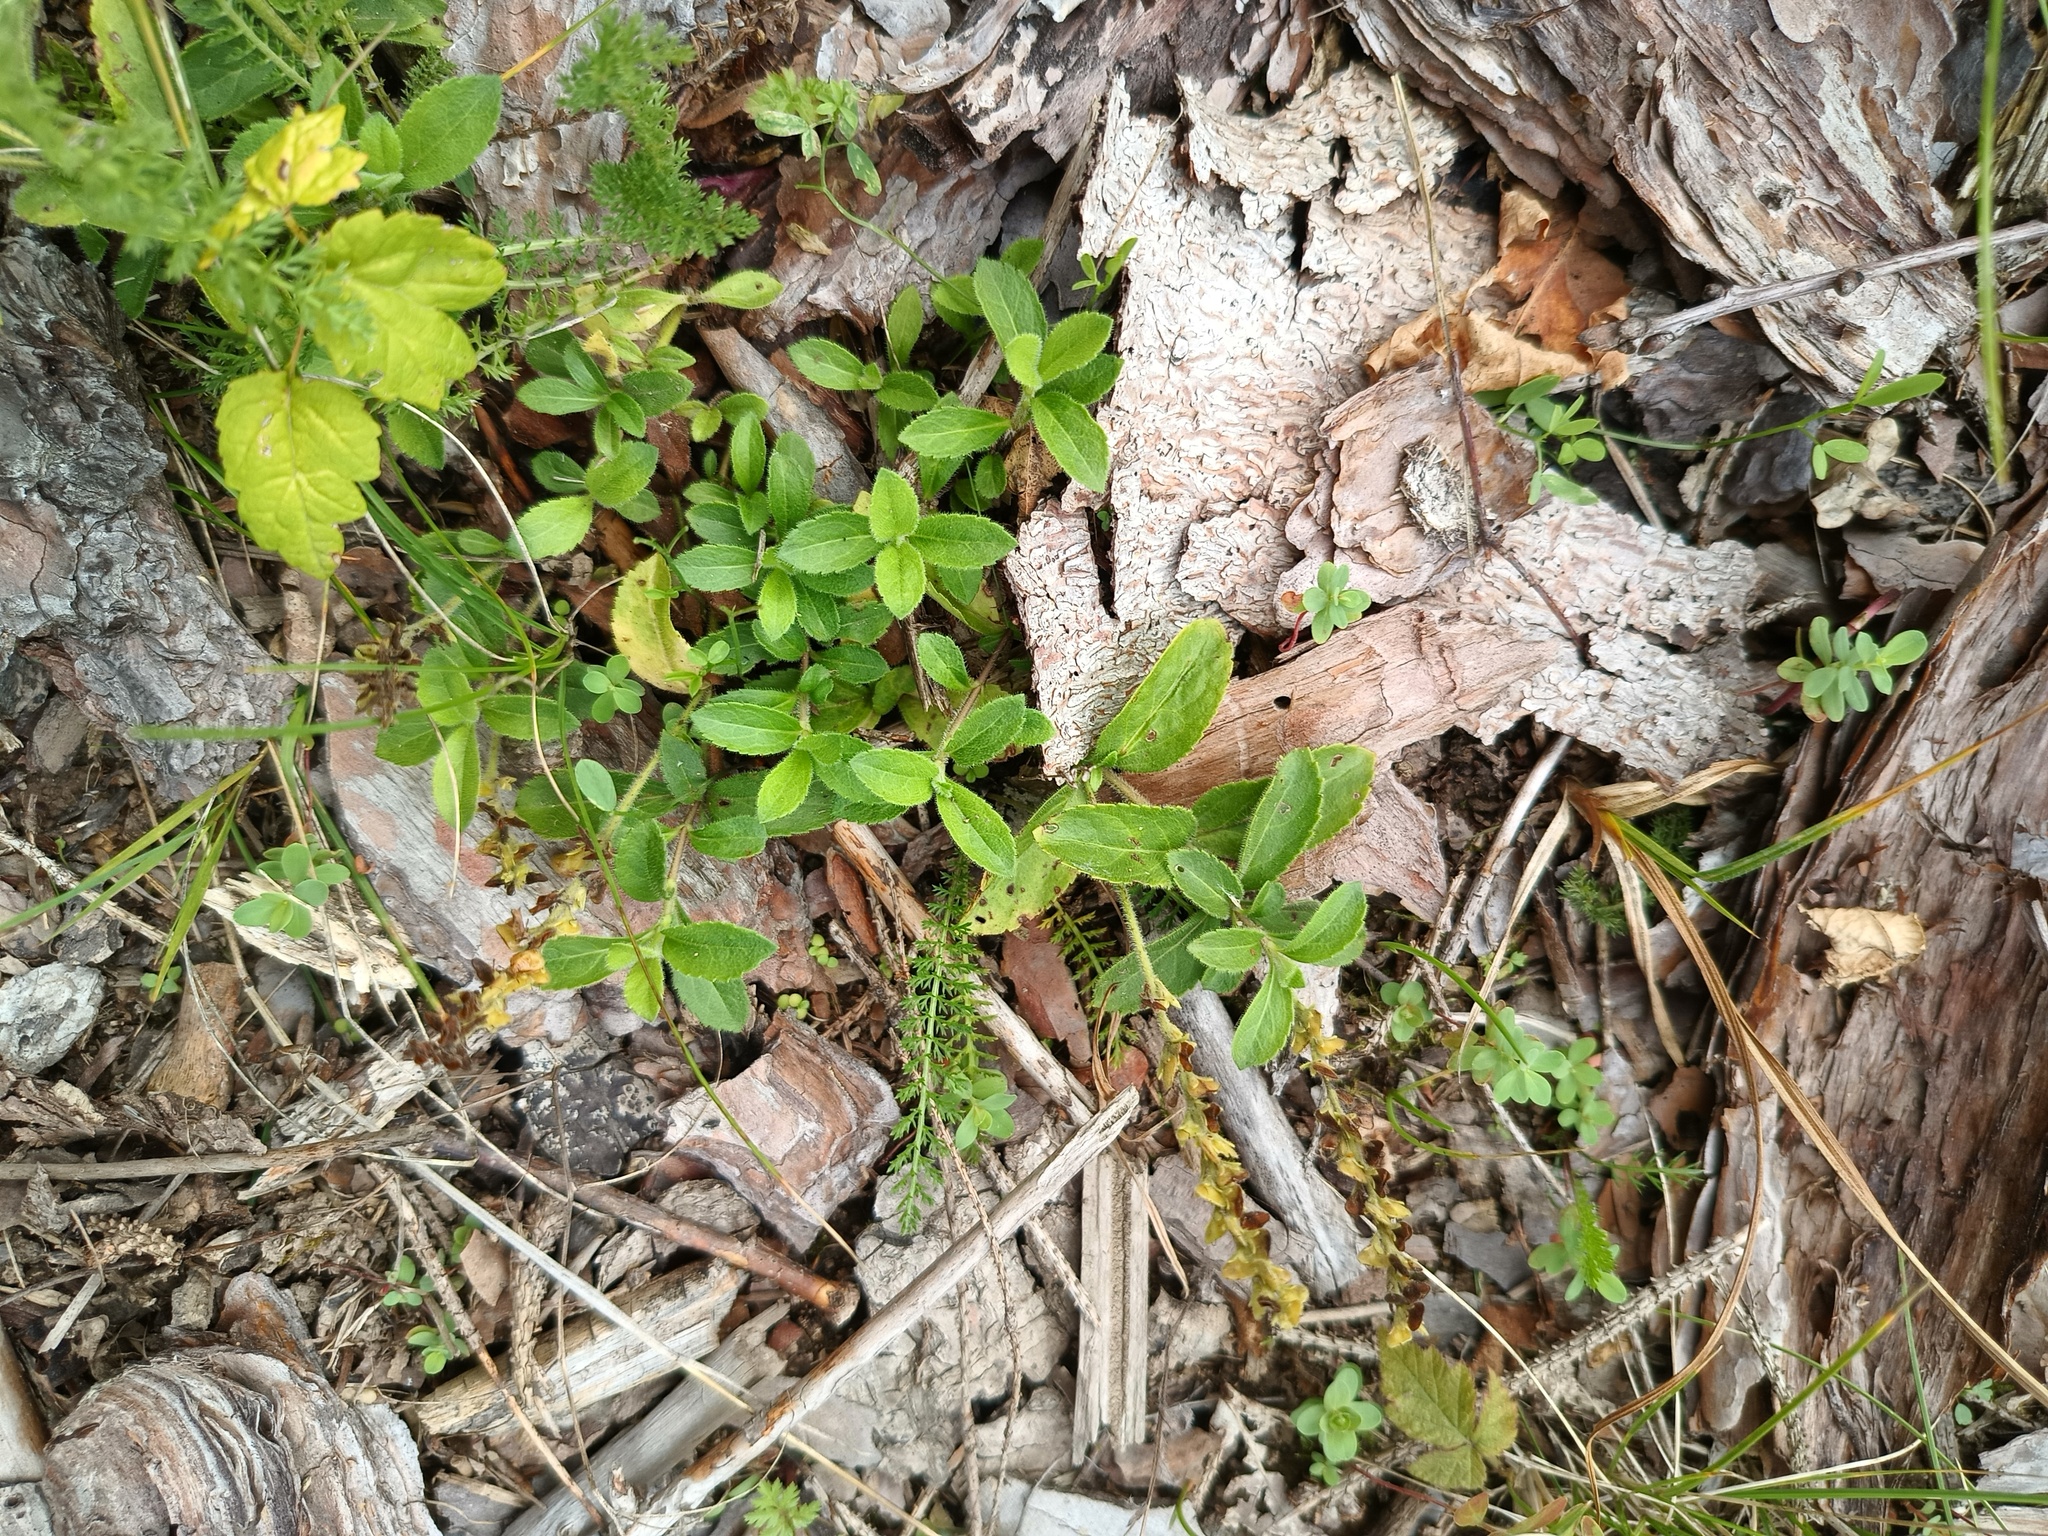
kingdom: Plantae
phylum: Tracheophyta
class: Magnoliopsida
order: Lamiales
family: Plantaginaceae
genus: Veronica
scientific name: Veronica officinalis
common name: Common speedwell
